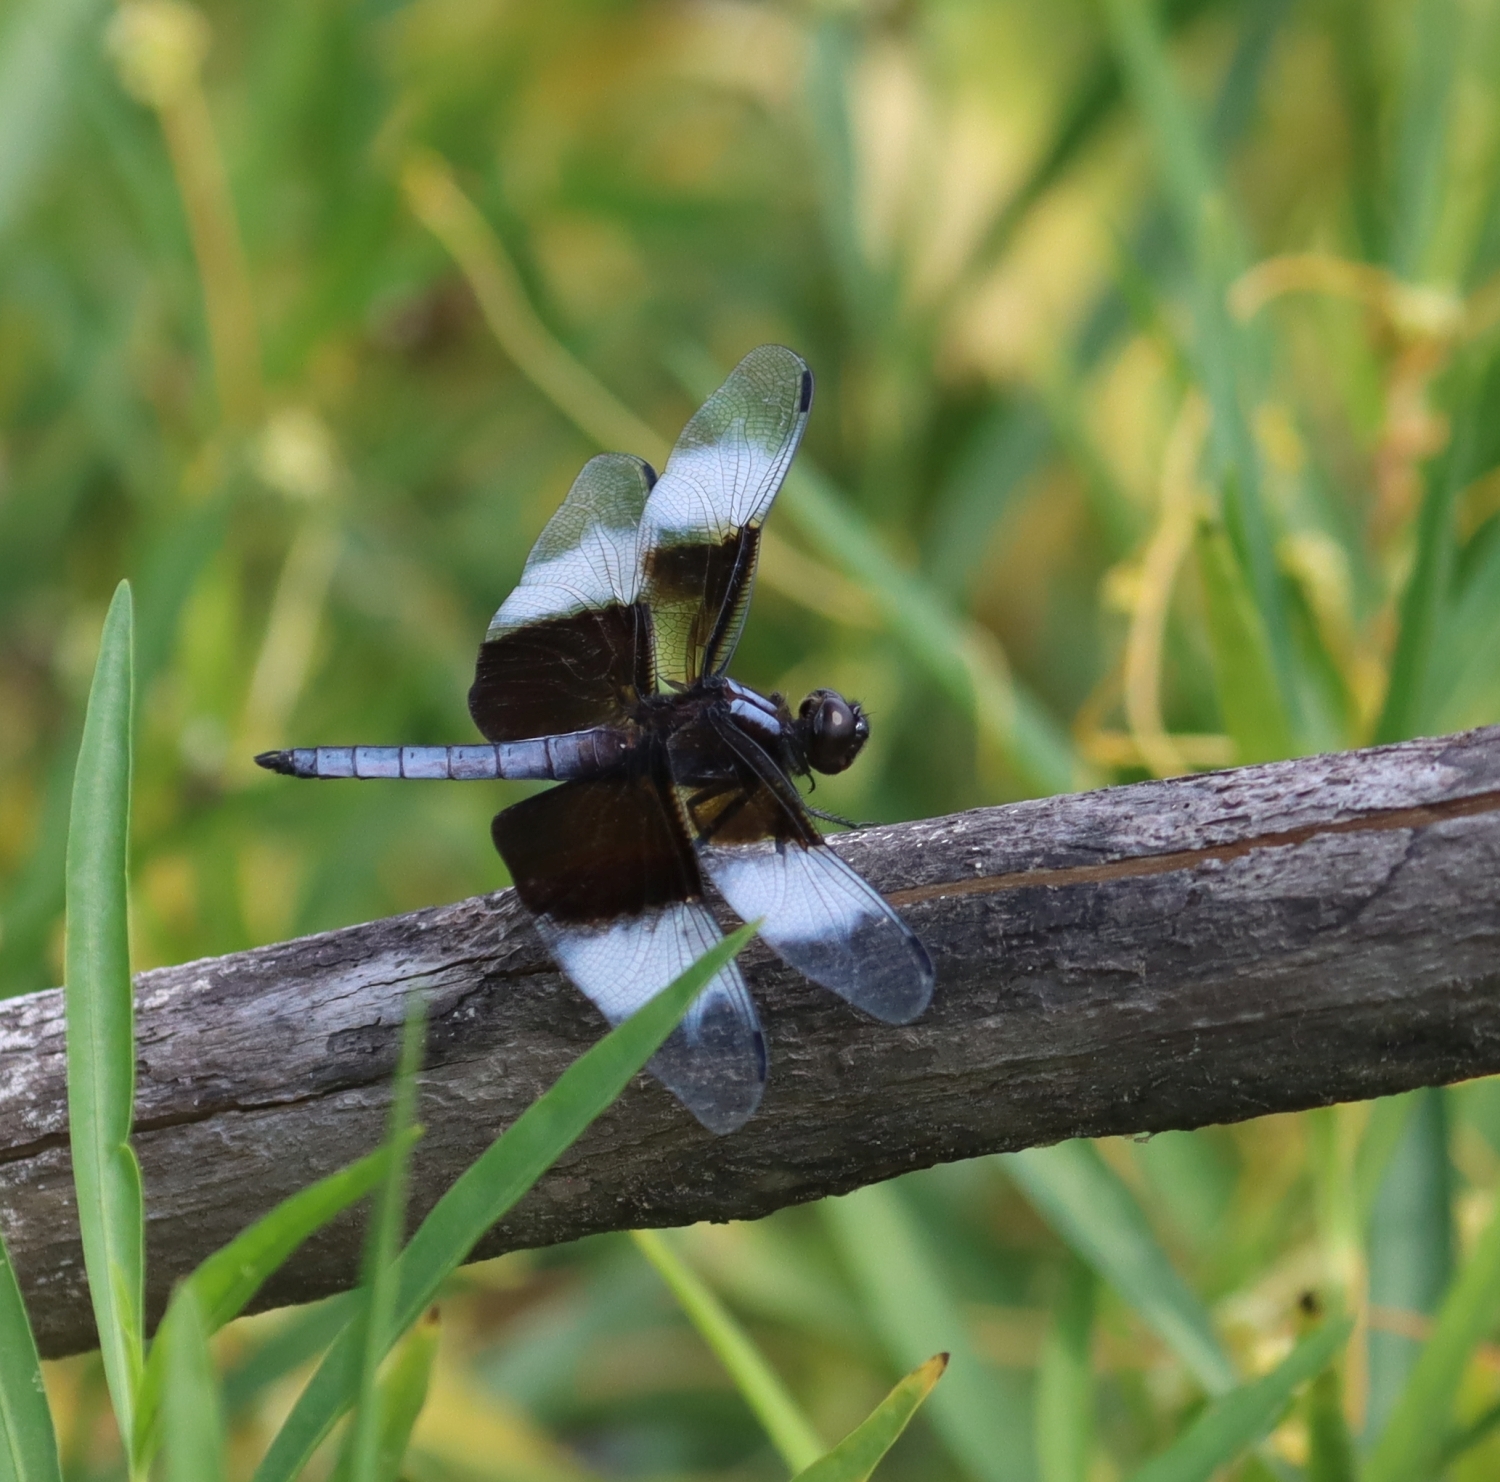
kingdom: Animalia
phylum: Arthropoda
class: Insecta
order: Odonata
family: Libellulidae
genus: Libellula
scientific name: Libellula luctuosa
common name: Widow skimmer
